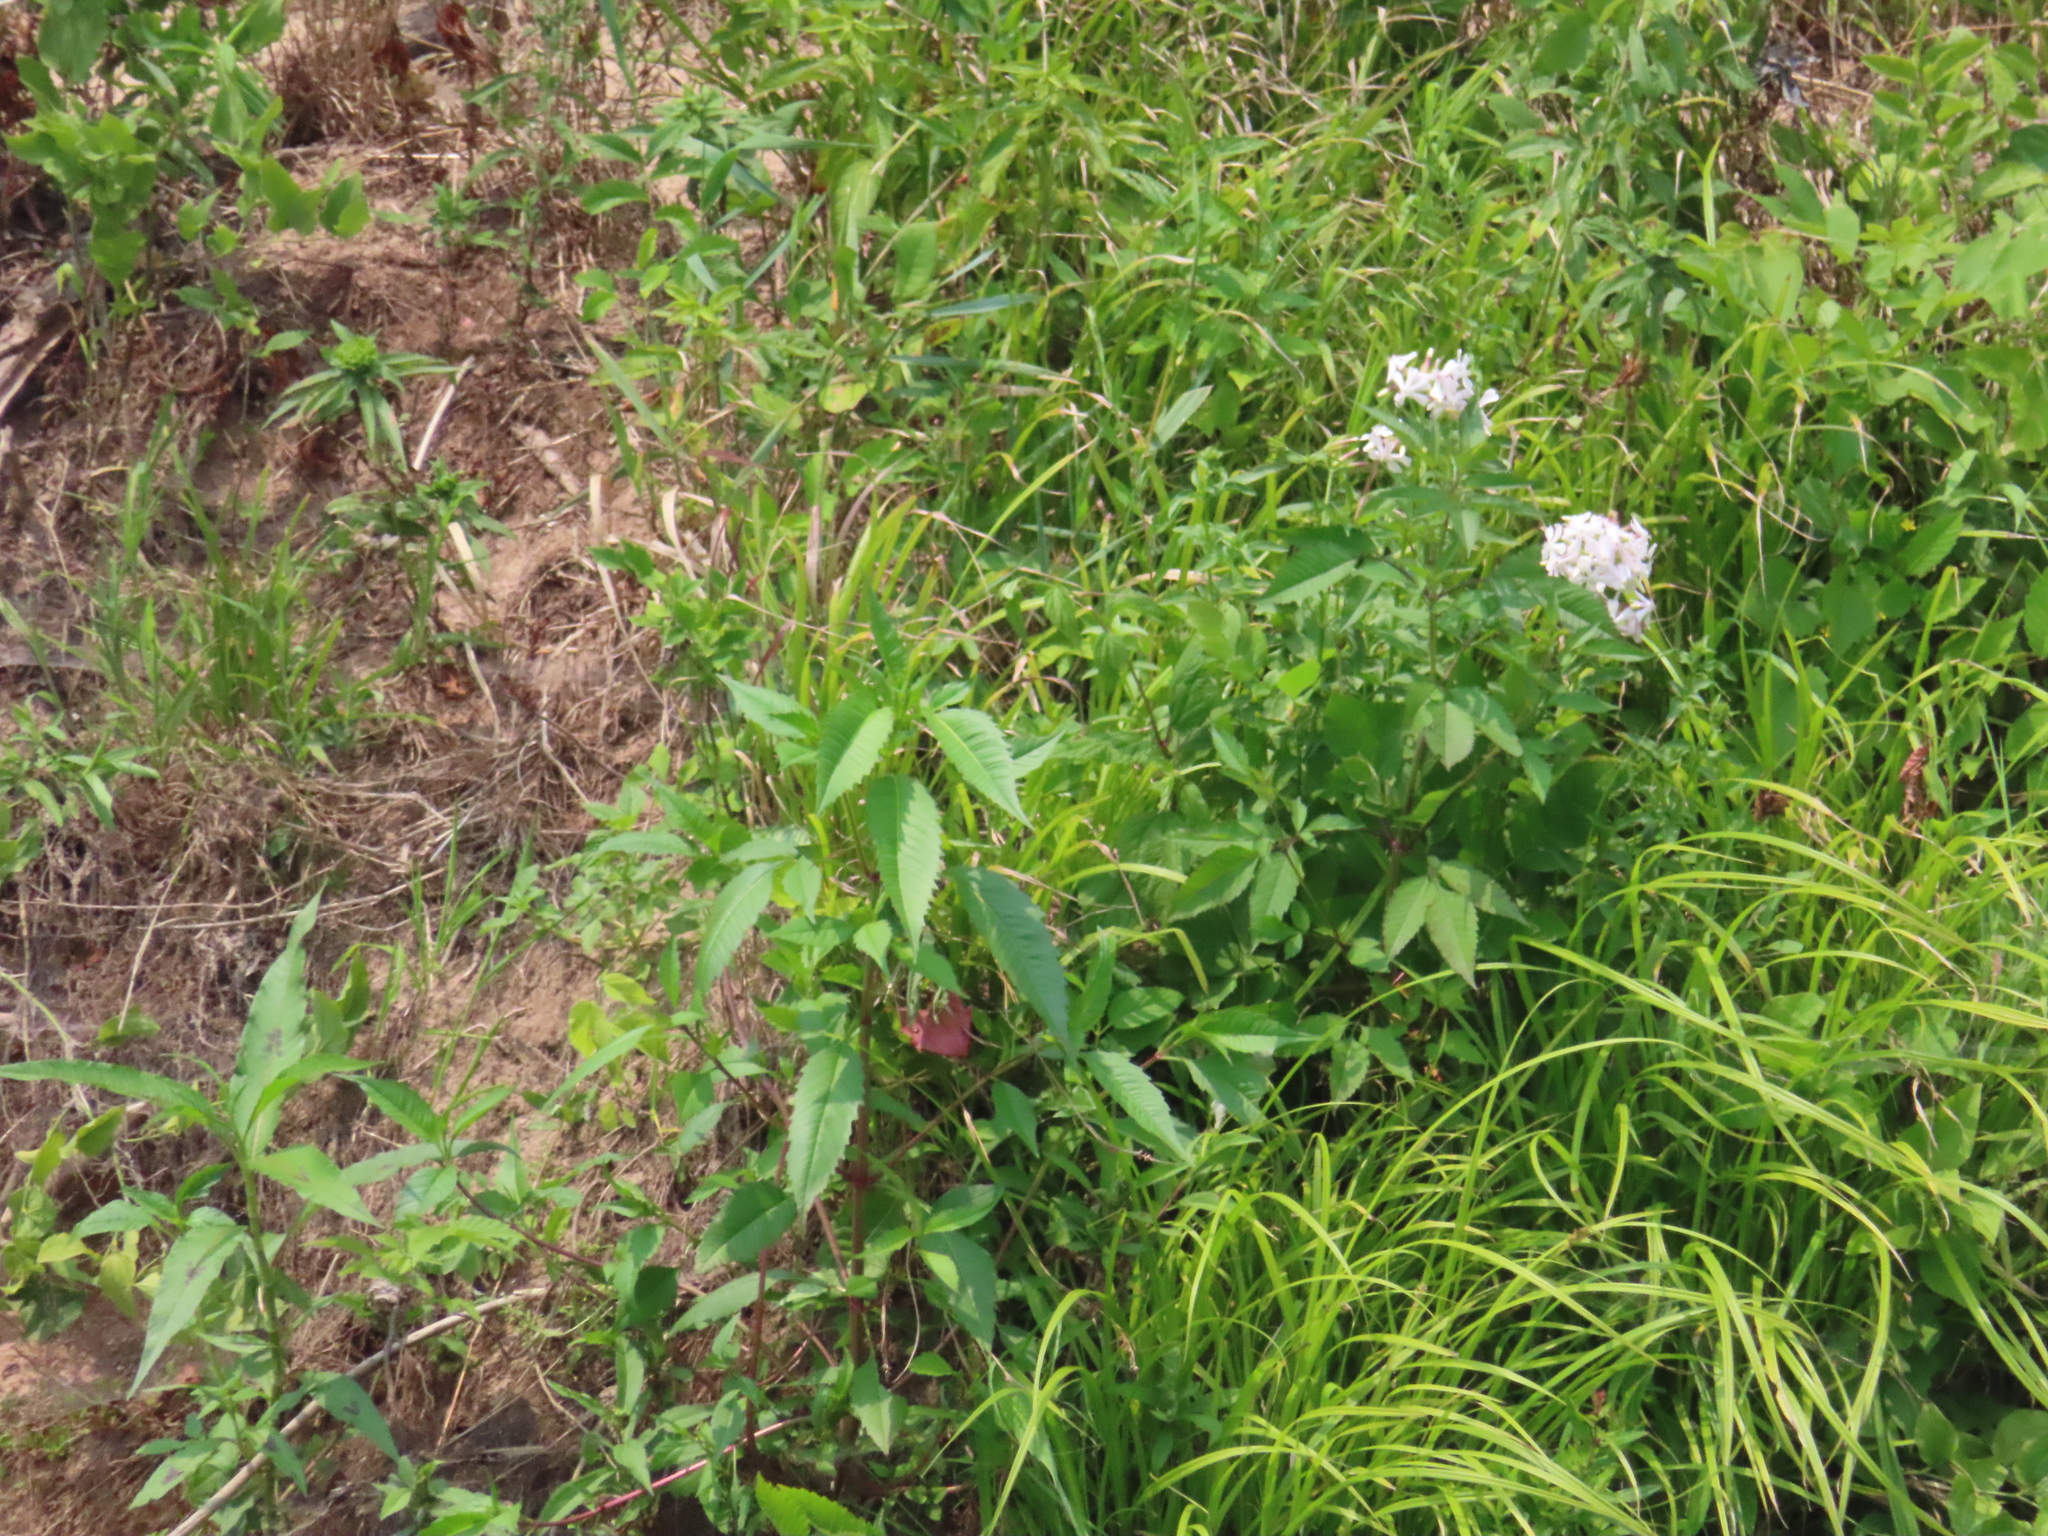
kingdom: Plantae
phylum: Tracheophyta
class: Magnoliopsida
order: Caryophyllales
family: Caryophyllaceae
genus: Saponaria
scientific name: Saponaria officinalis
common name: Soapwort
